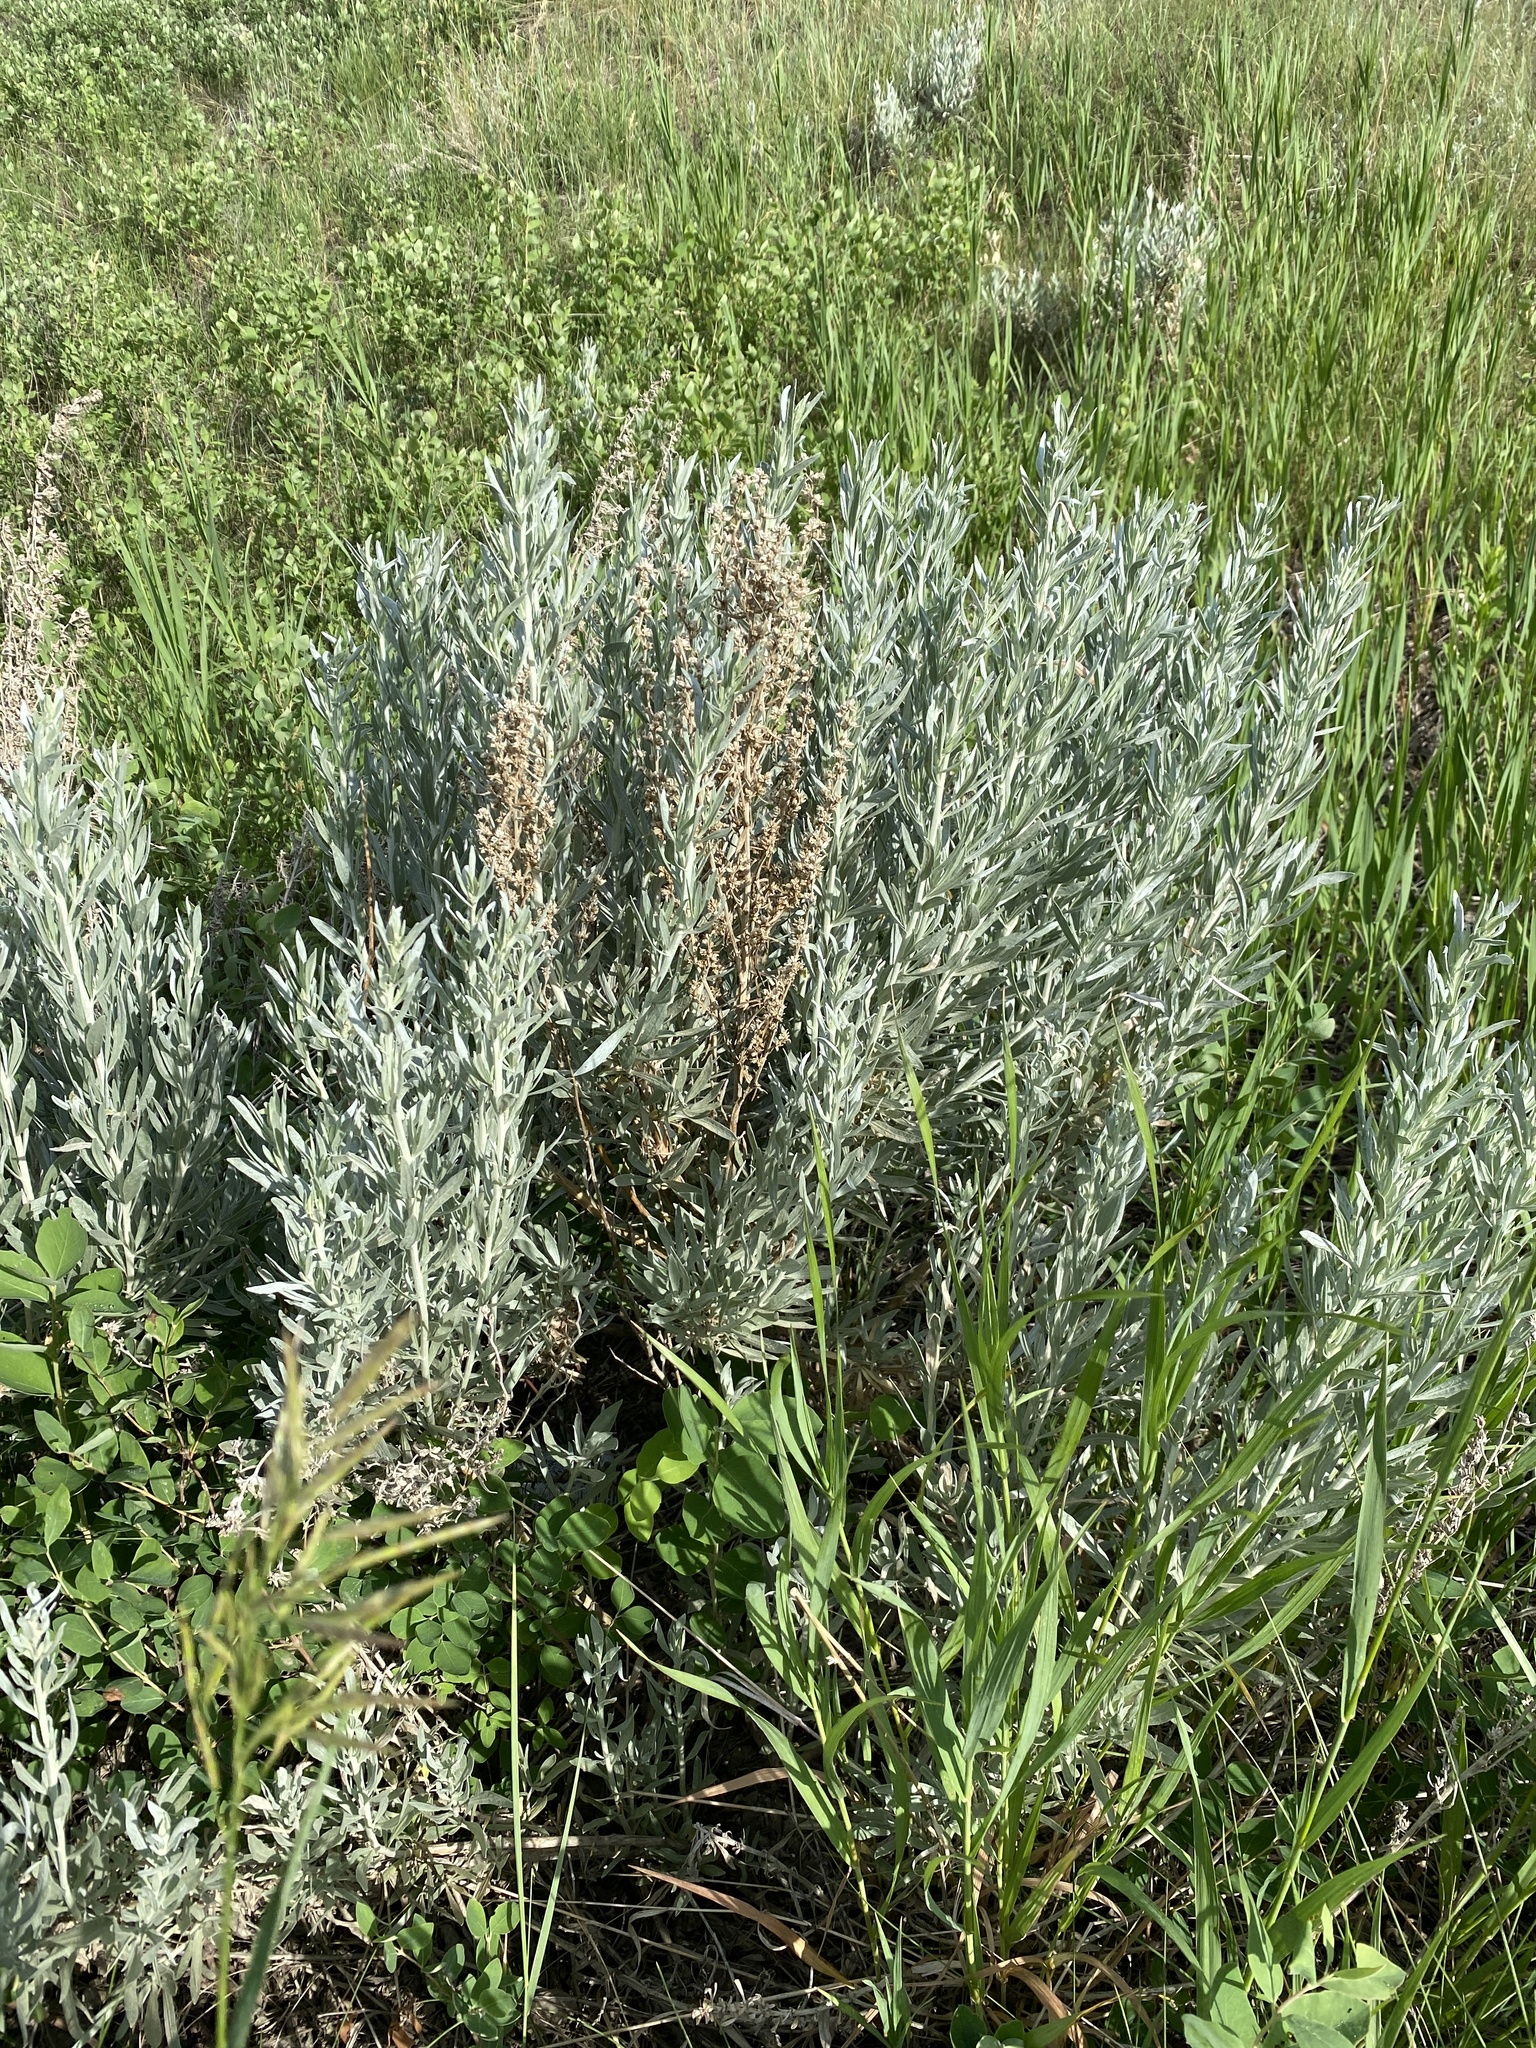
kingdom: Plantae
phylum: Tracheophyta
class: Magnoliopsida
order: Asterales
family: Asteraceae
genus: Artemisia
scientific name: Artemisia cana
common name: Silver sagebrush
